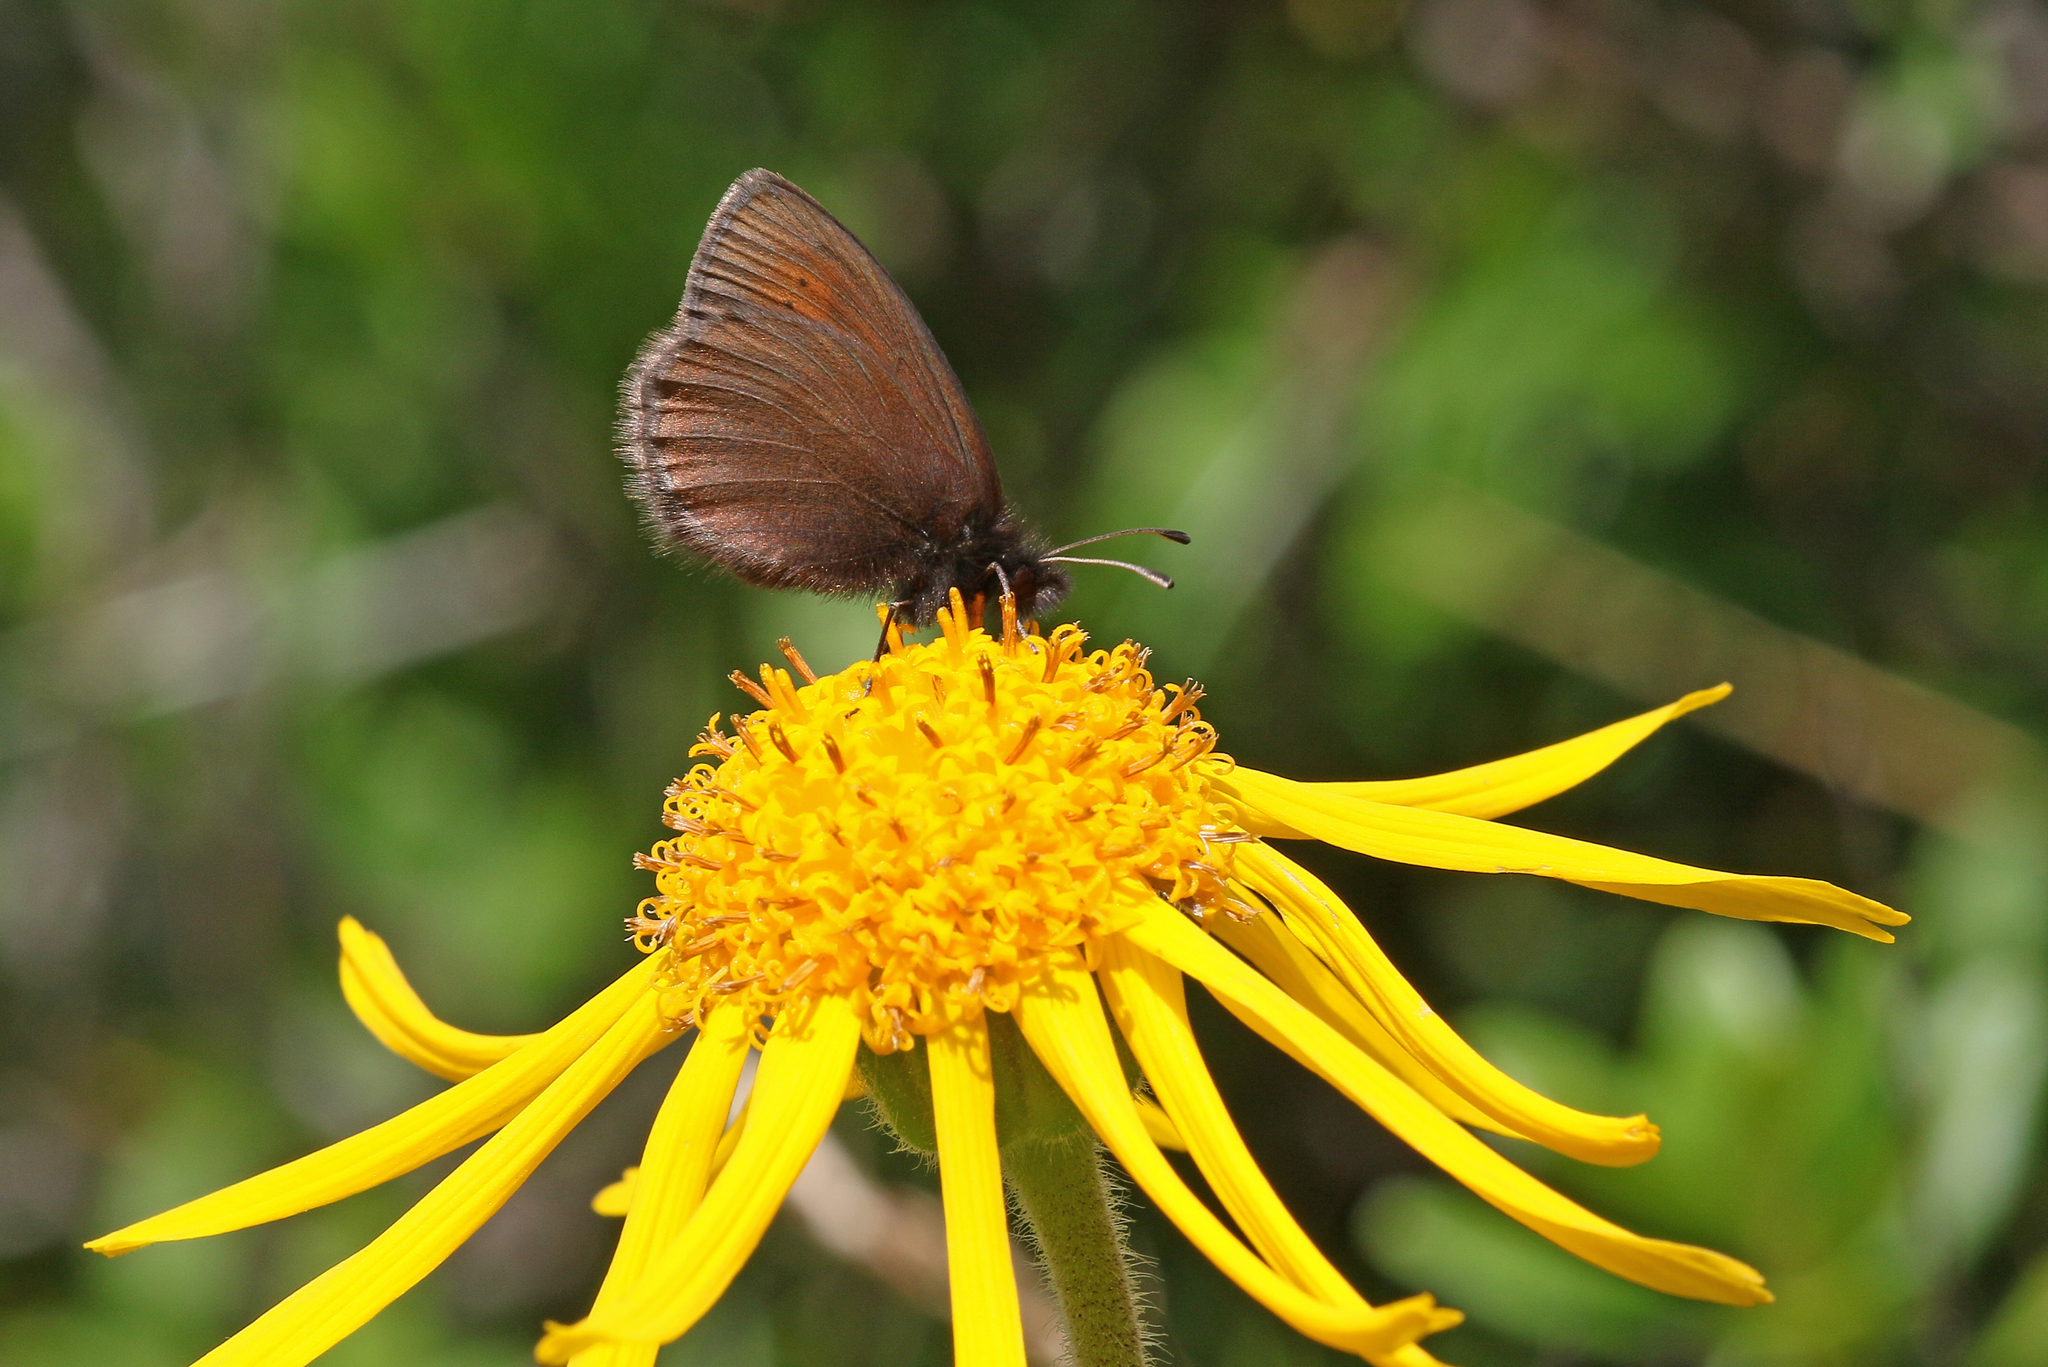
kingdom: Animalia
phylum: Arthropoda
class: Insecta
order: Lepidoptera
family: Nymphalidae
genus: Erebia
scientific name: Erebia epiphron
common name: Mountain ringlet
